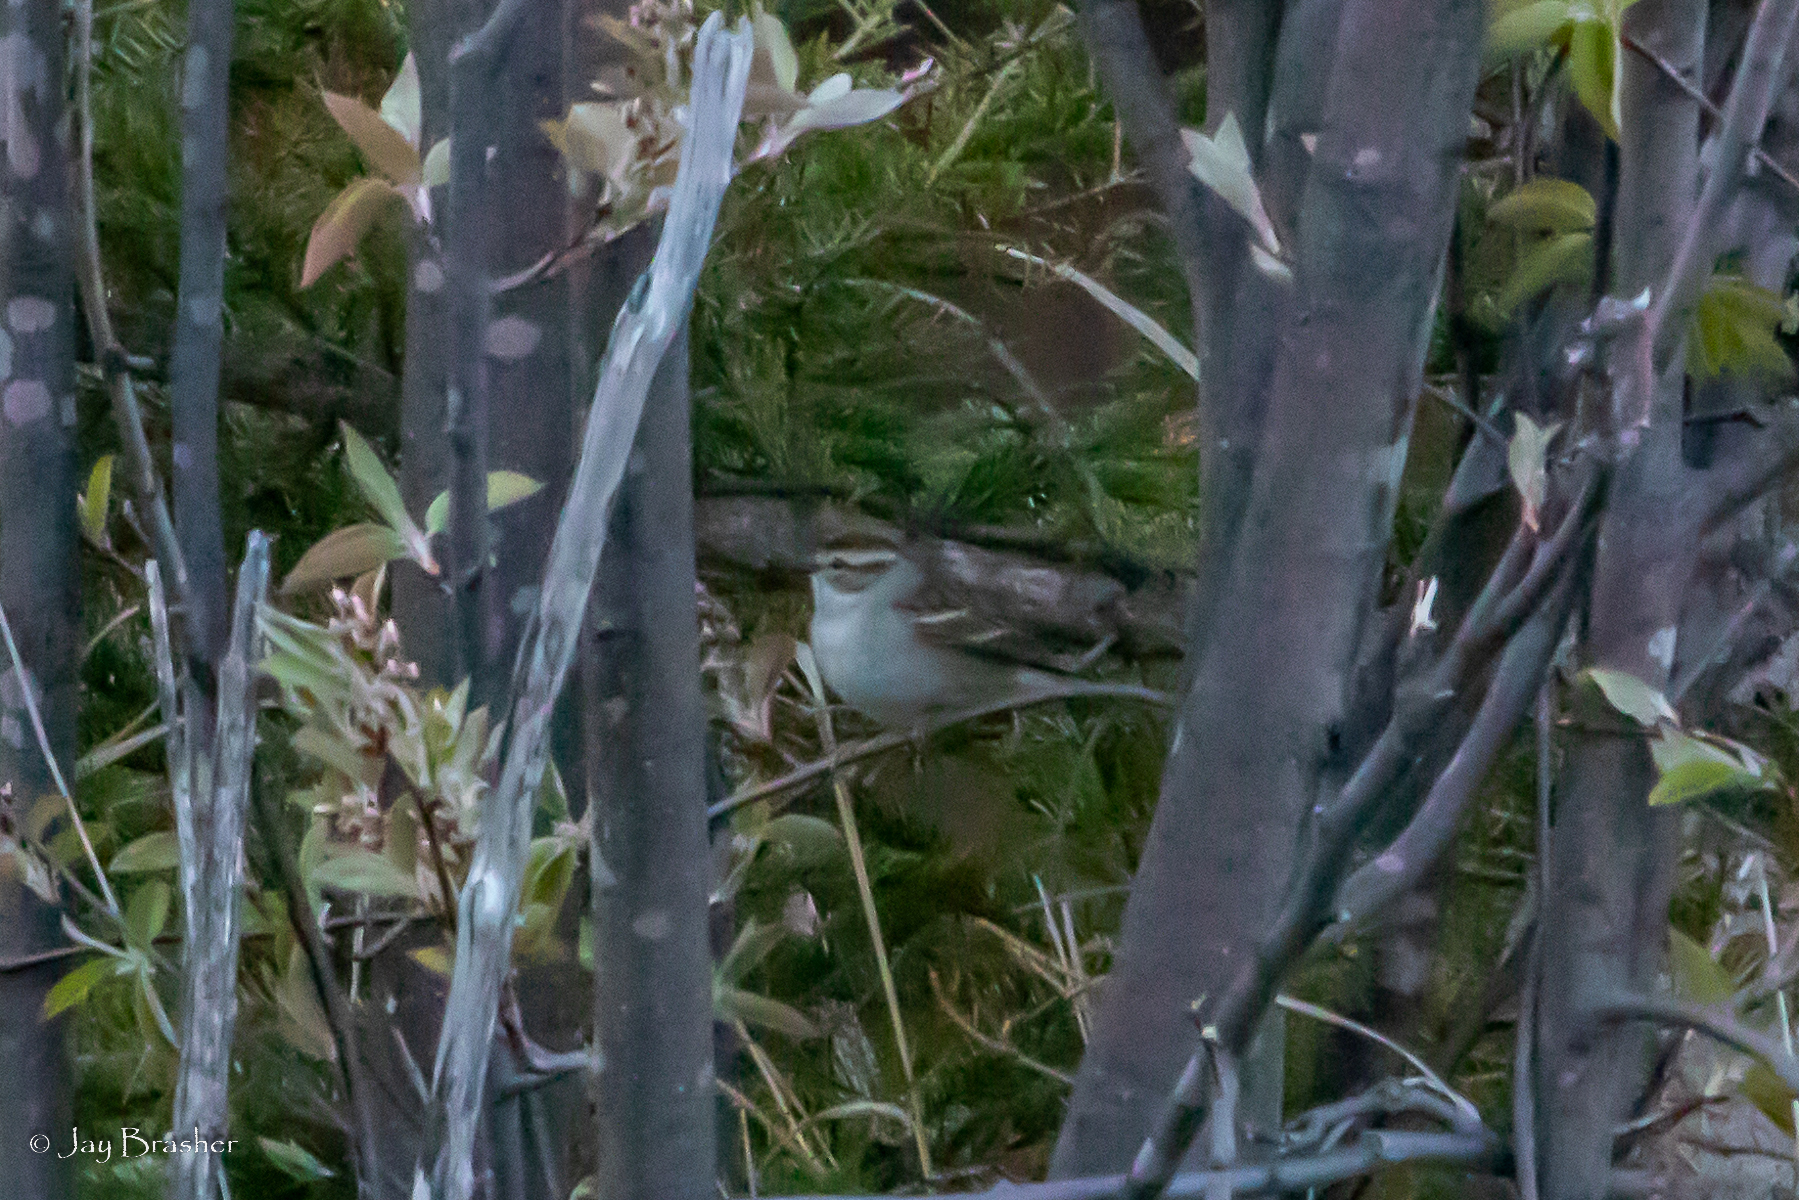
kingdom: Animalia
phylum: Chordata
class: Aves
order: Passeriformes
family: Passerellidae
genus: Spizella
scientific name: Spizella passerina
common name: Chipping sparrow
